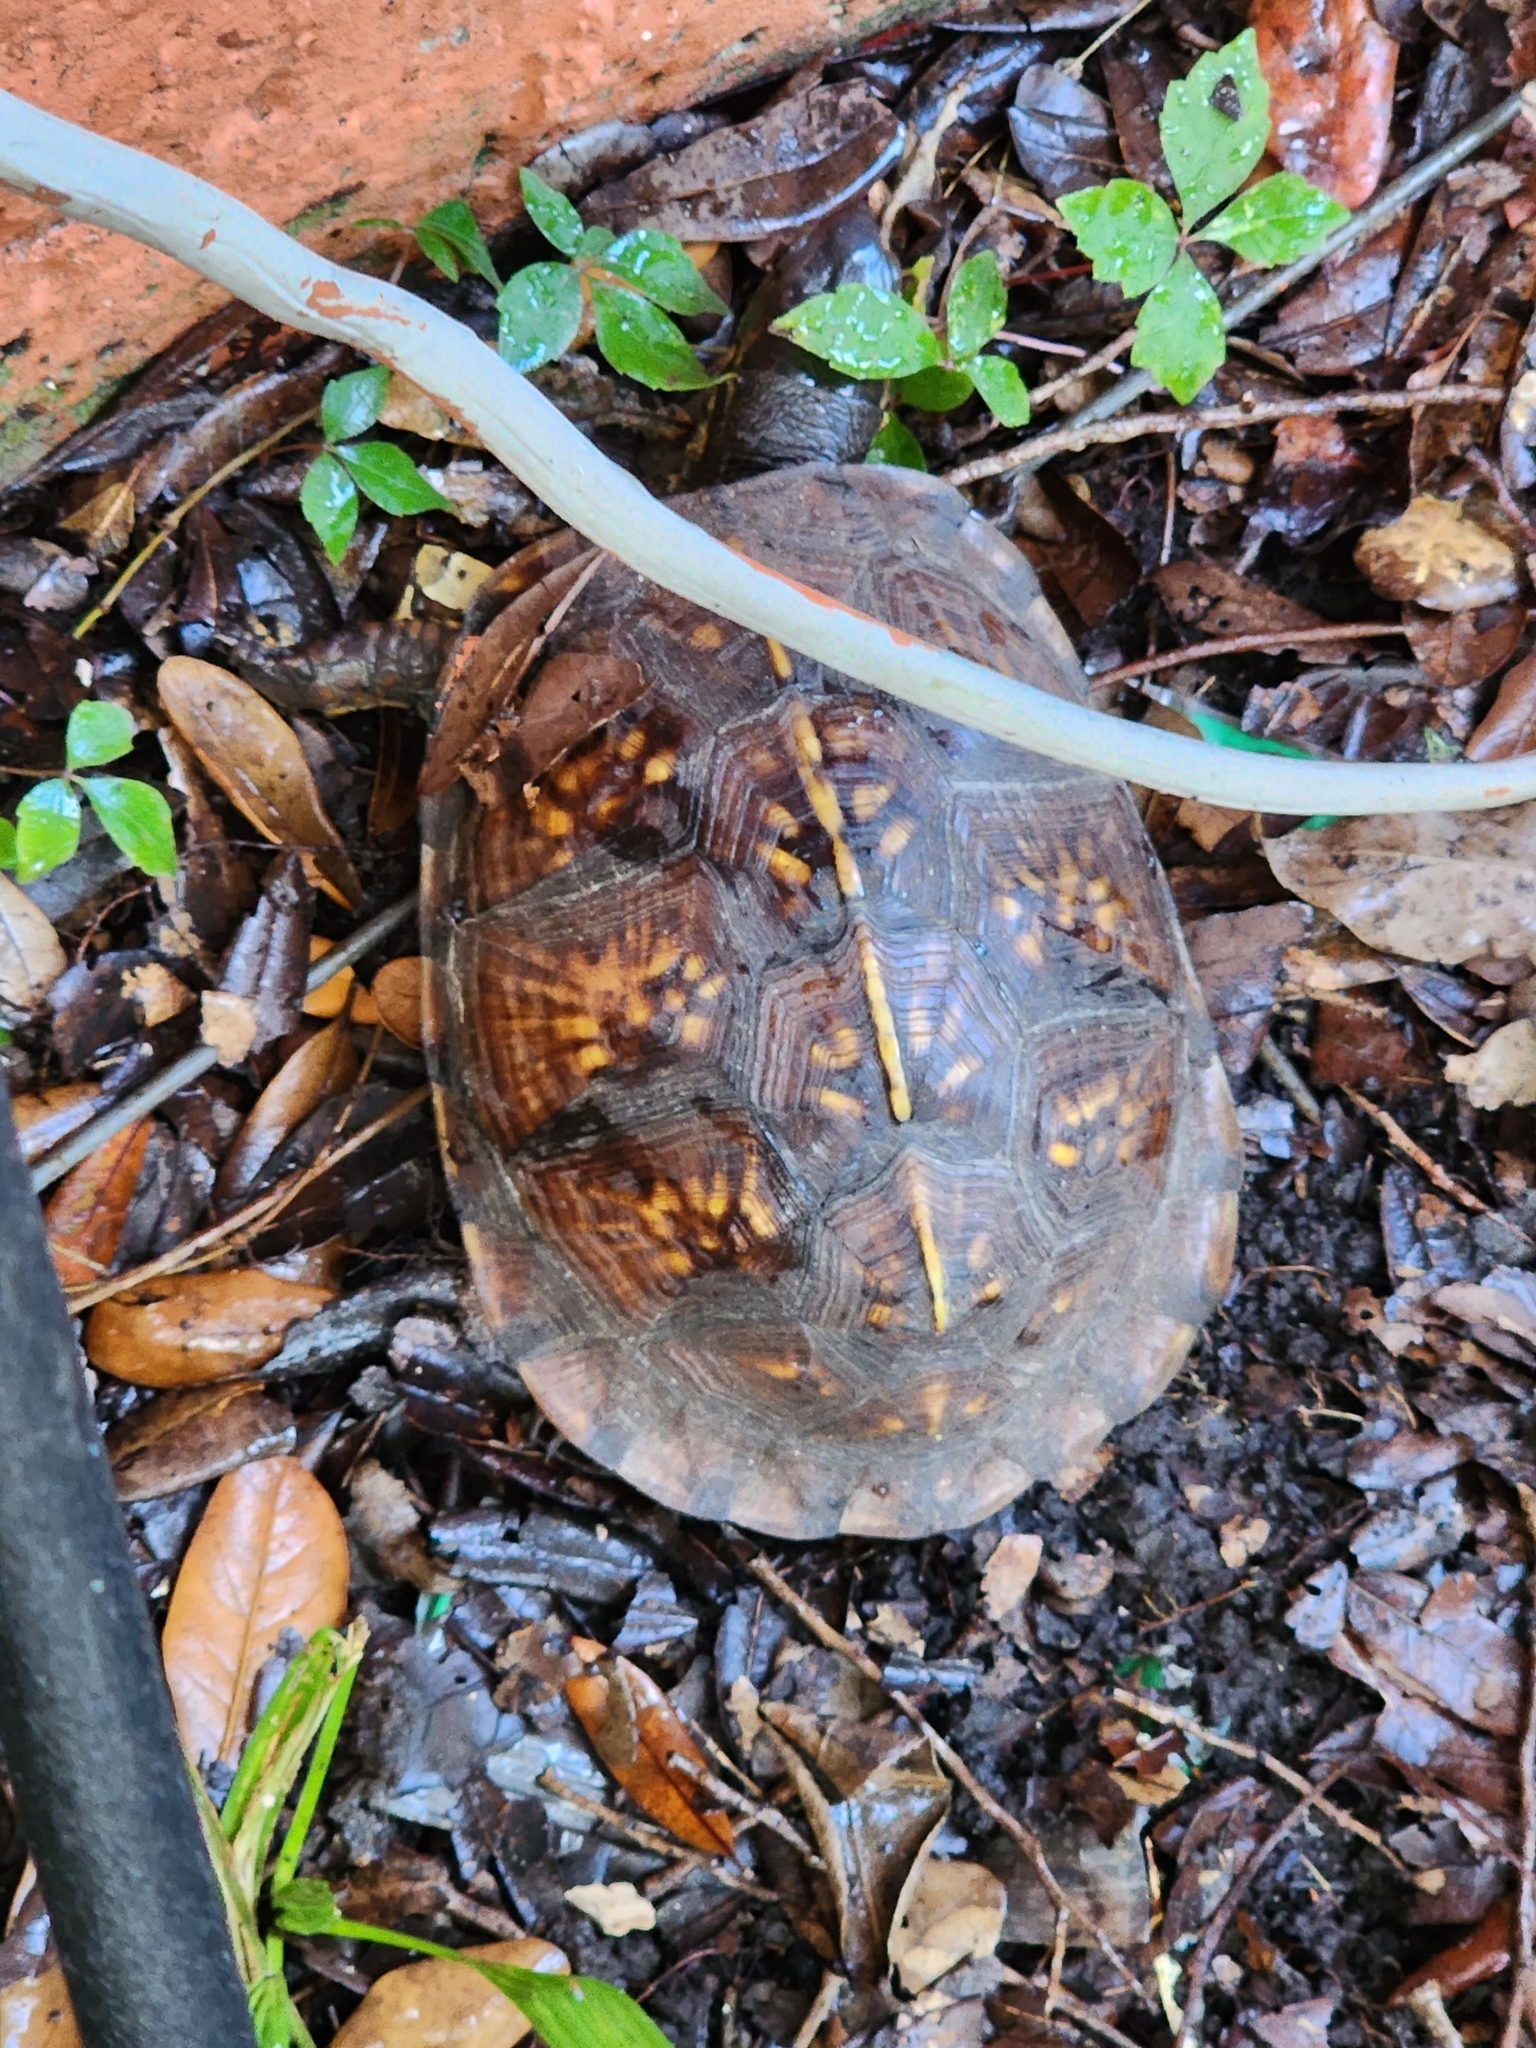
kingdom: Animalia
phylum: Chordata
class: Testudines
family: Emydidae
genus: Terrapene
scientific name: Terrapene carolina
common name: Common box turtle
